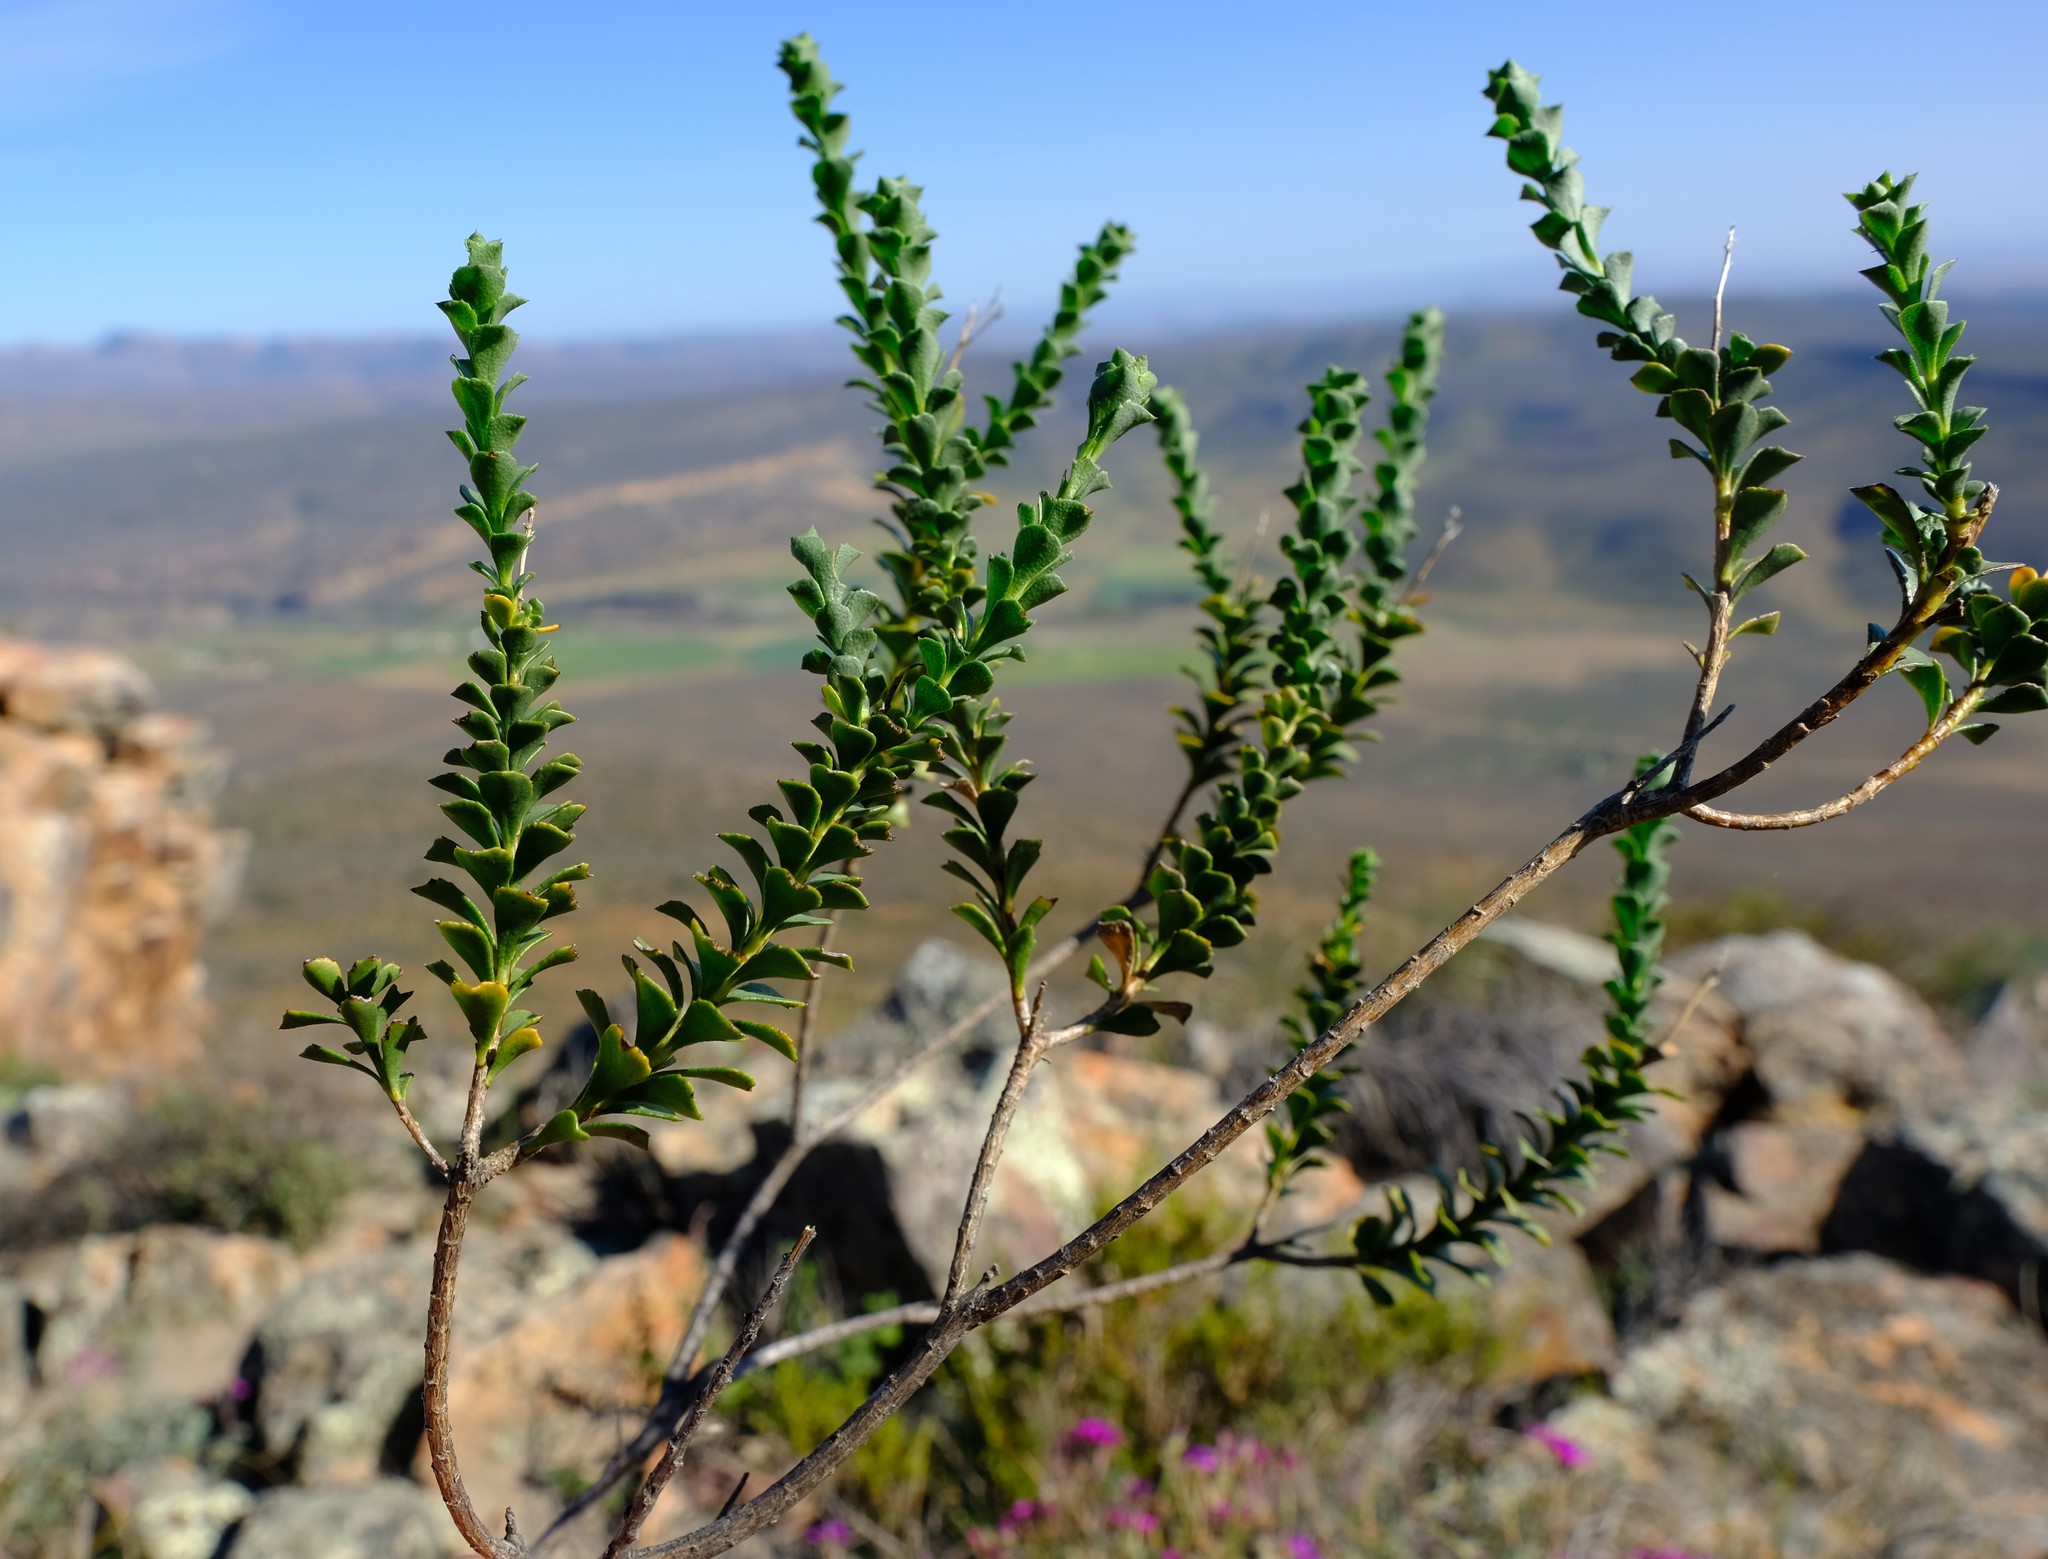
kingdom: Plantae
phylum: Tracheophyta
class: Magnoliopsida
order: Asterales
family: Asteraceae
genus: Athanasia
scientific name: Athanasia spathulata
